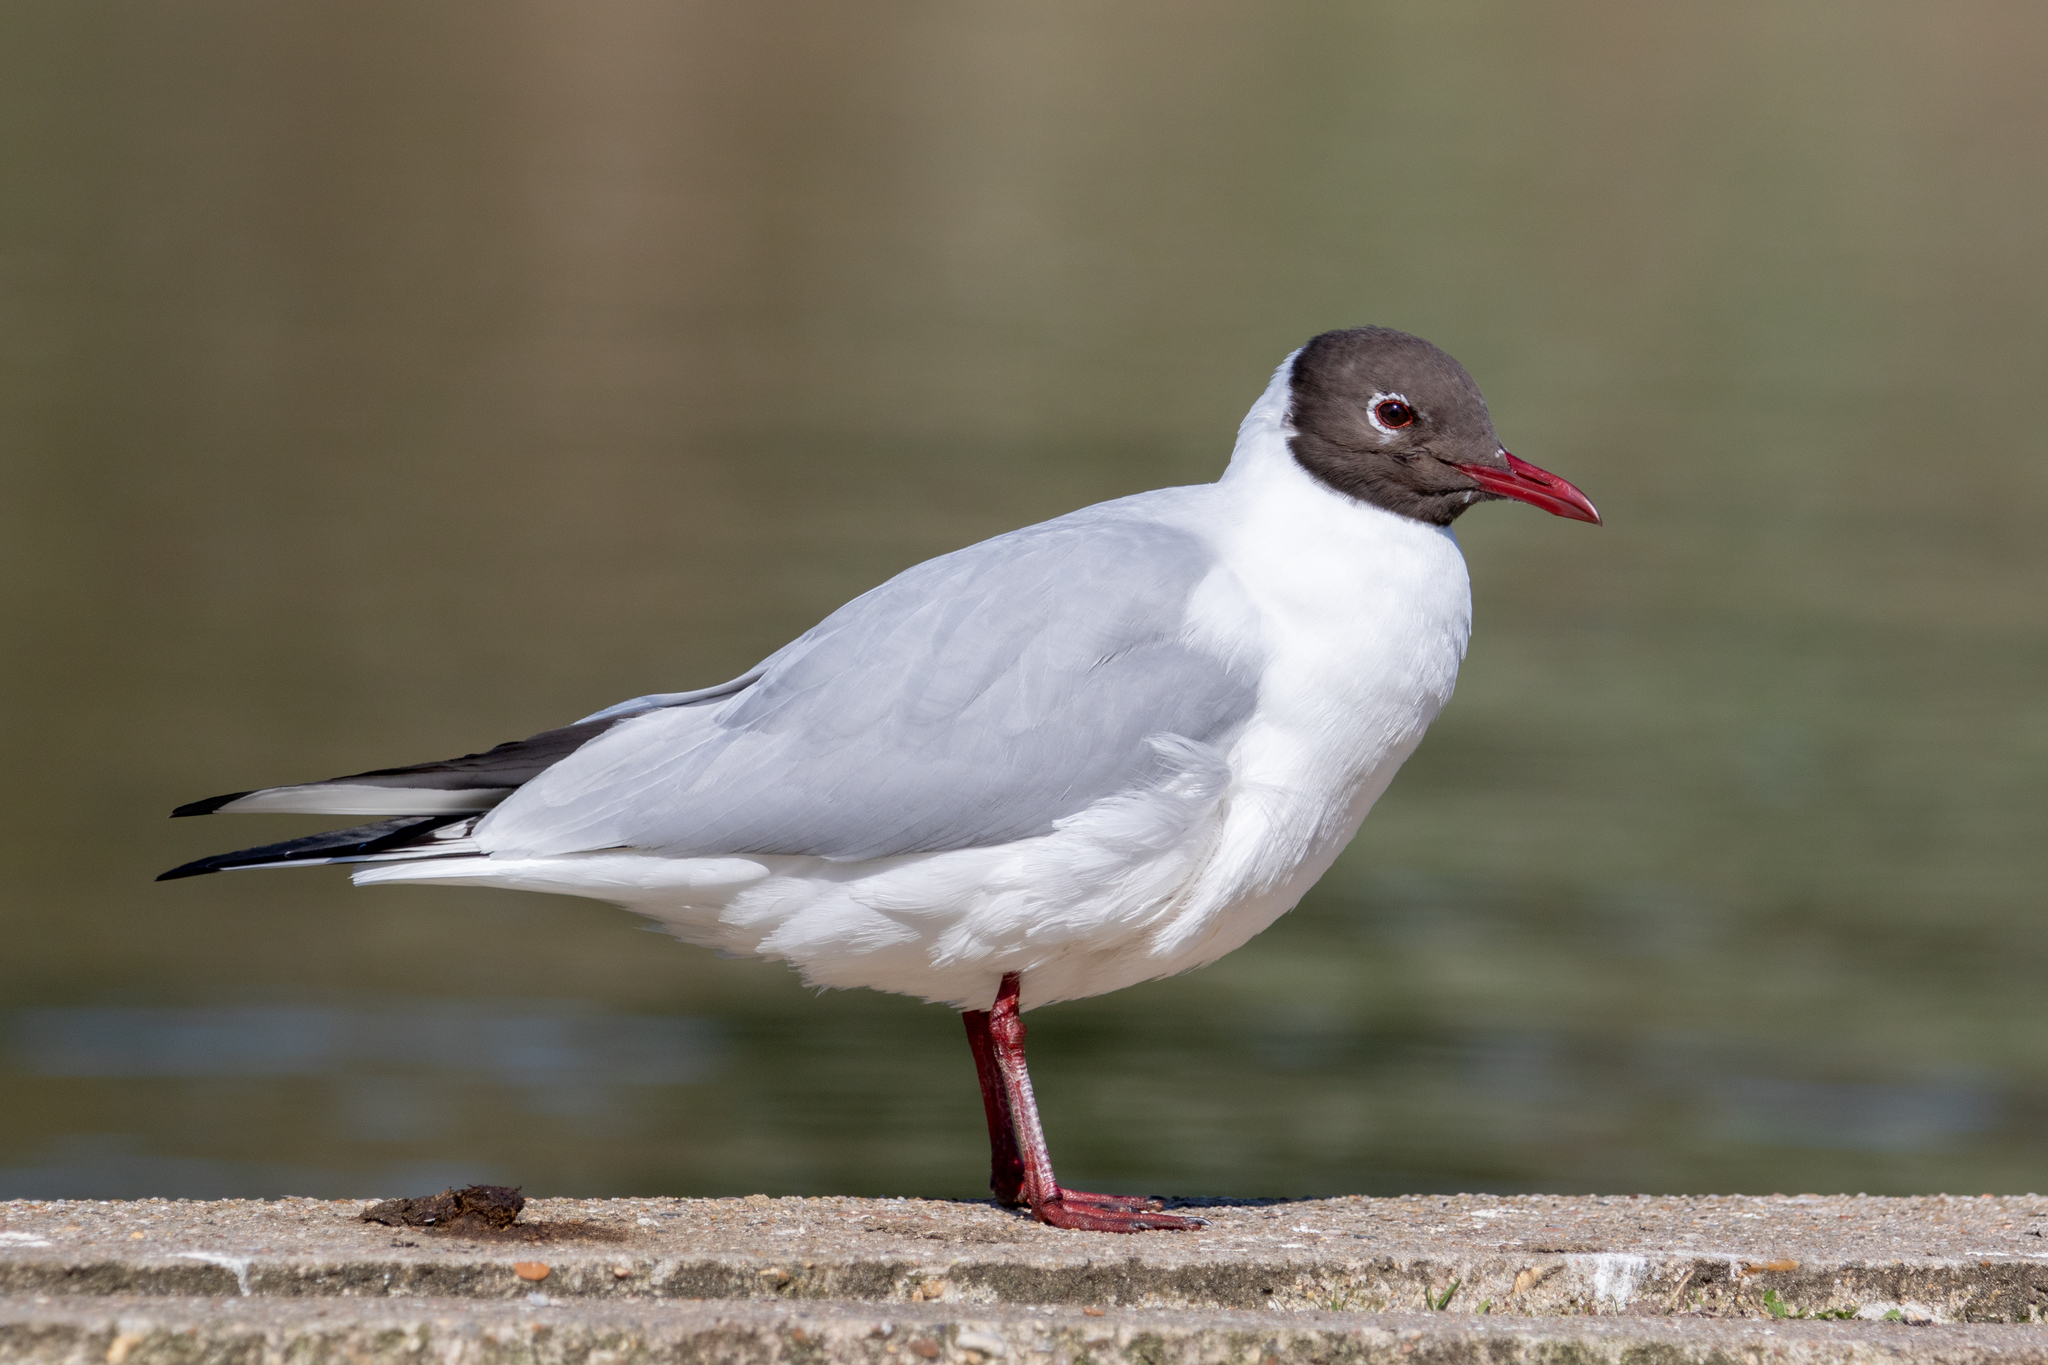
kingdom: Animalia
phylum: Chordata
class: Aves
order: Charadriiformes
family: Laridae
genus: Chroicocephalus
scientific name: Chroicocephalus ridibundus
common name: Black-headed gull
